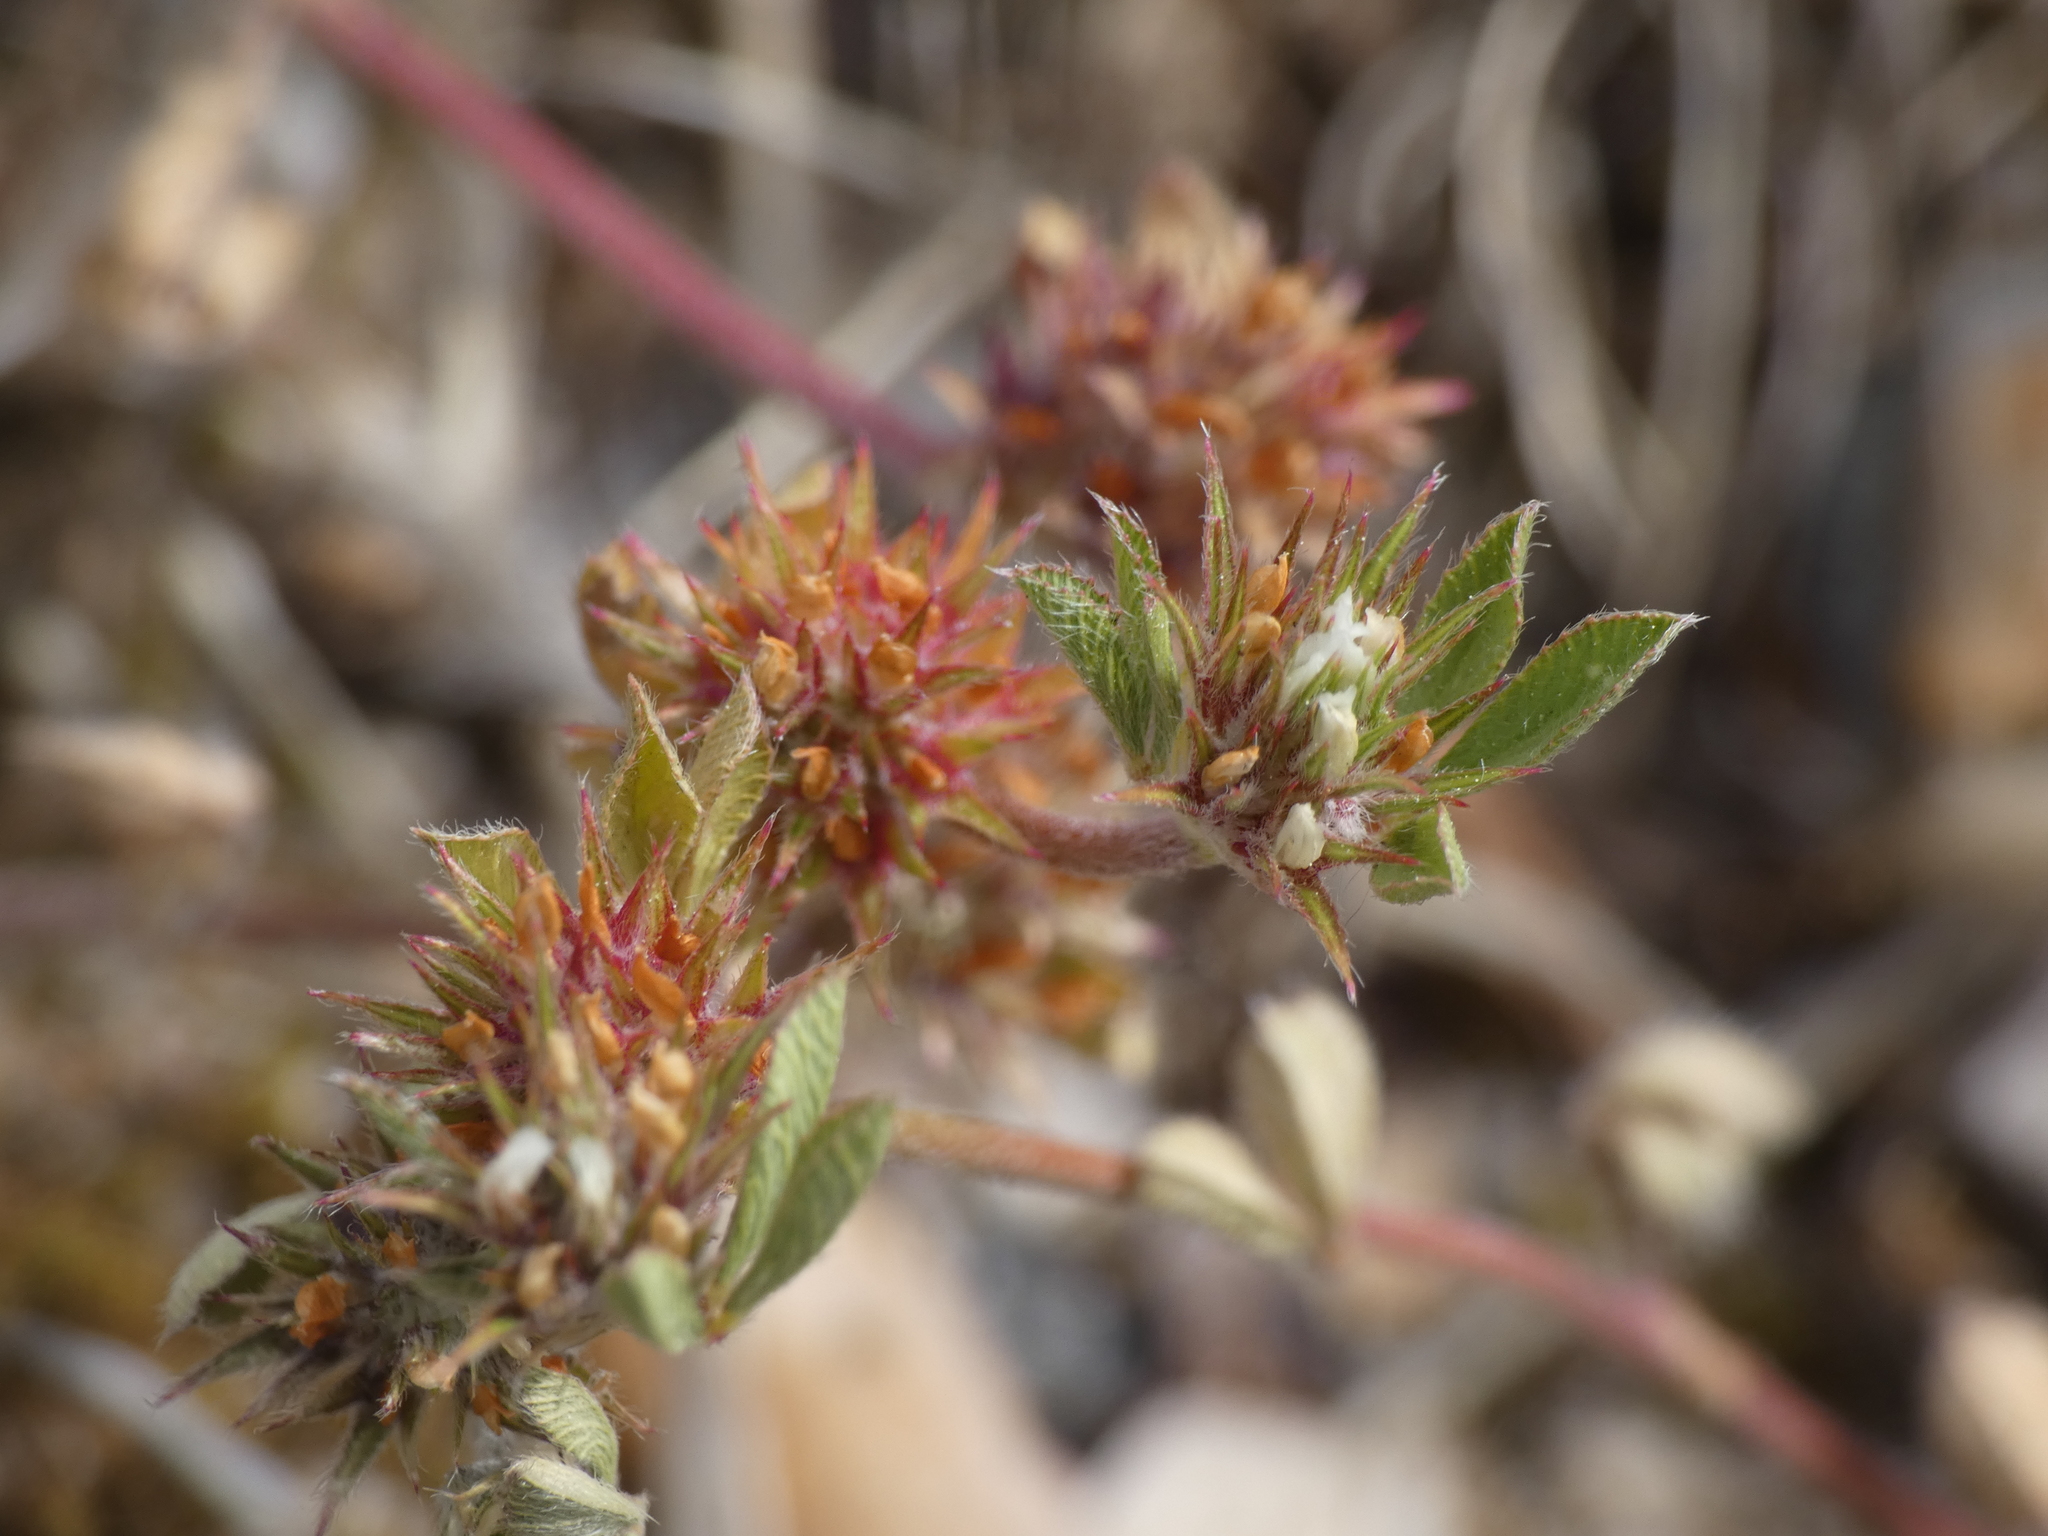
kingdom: Plantae
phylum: Tracheophyta
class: Magnoliopsida
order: Fabales
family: Fabaceae
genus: Trifolium
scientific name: Trifolium scabrum
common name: Rough clover
